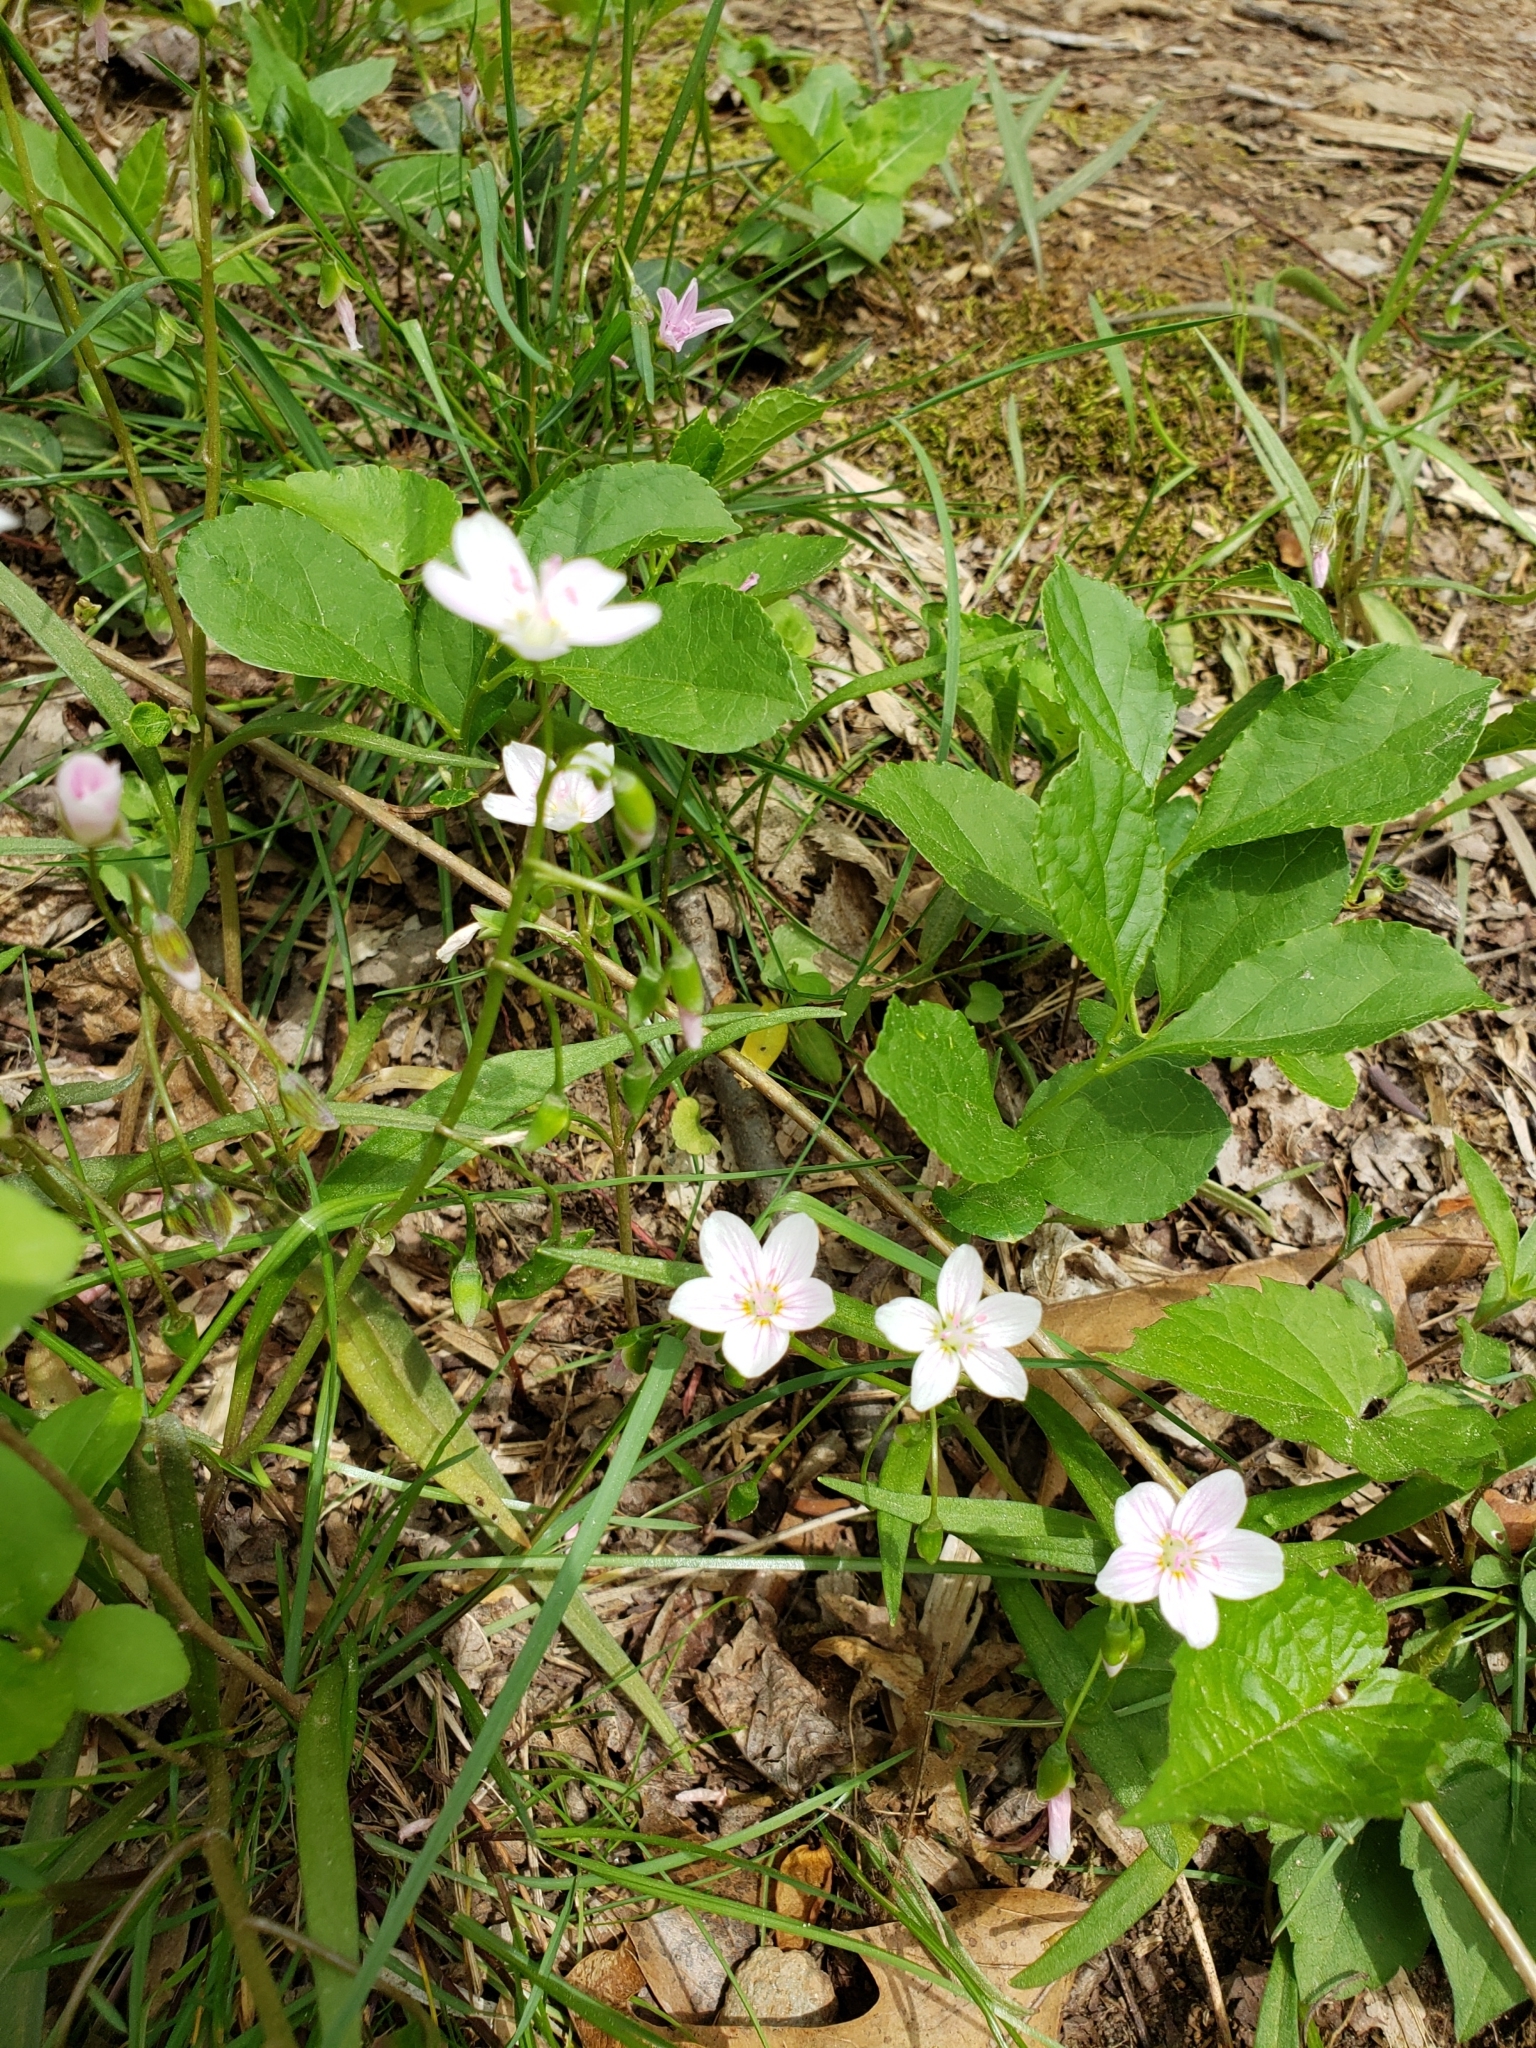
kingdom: Plantae
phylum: Tracheophyta
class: Magnoliopsida
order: Caryophyllales
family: Montiaceae
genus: Claytonia
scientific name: Claytonia virginica
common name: Virginia springbeauty
